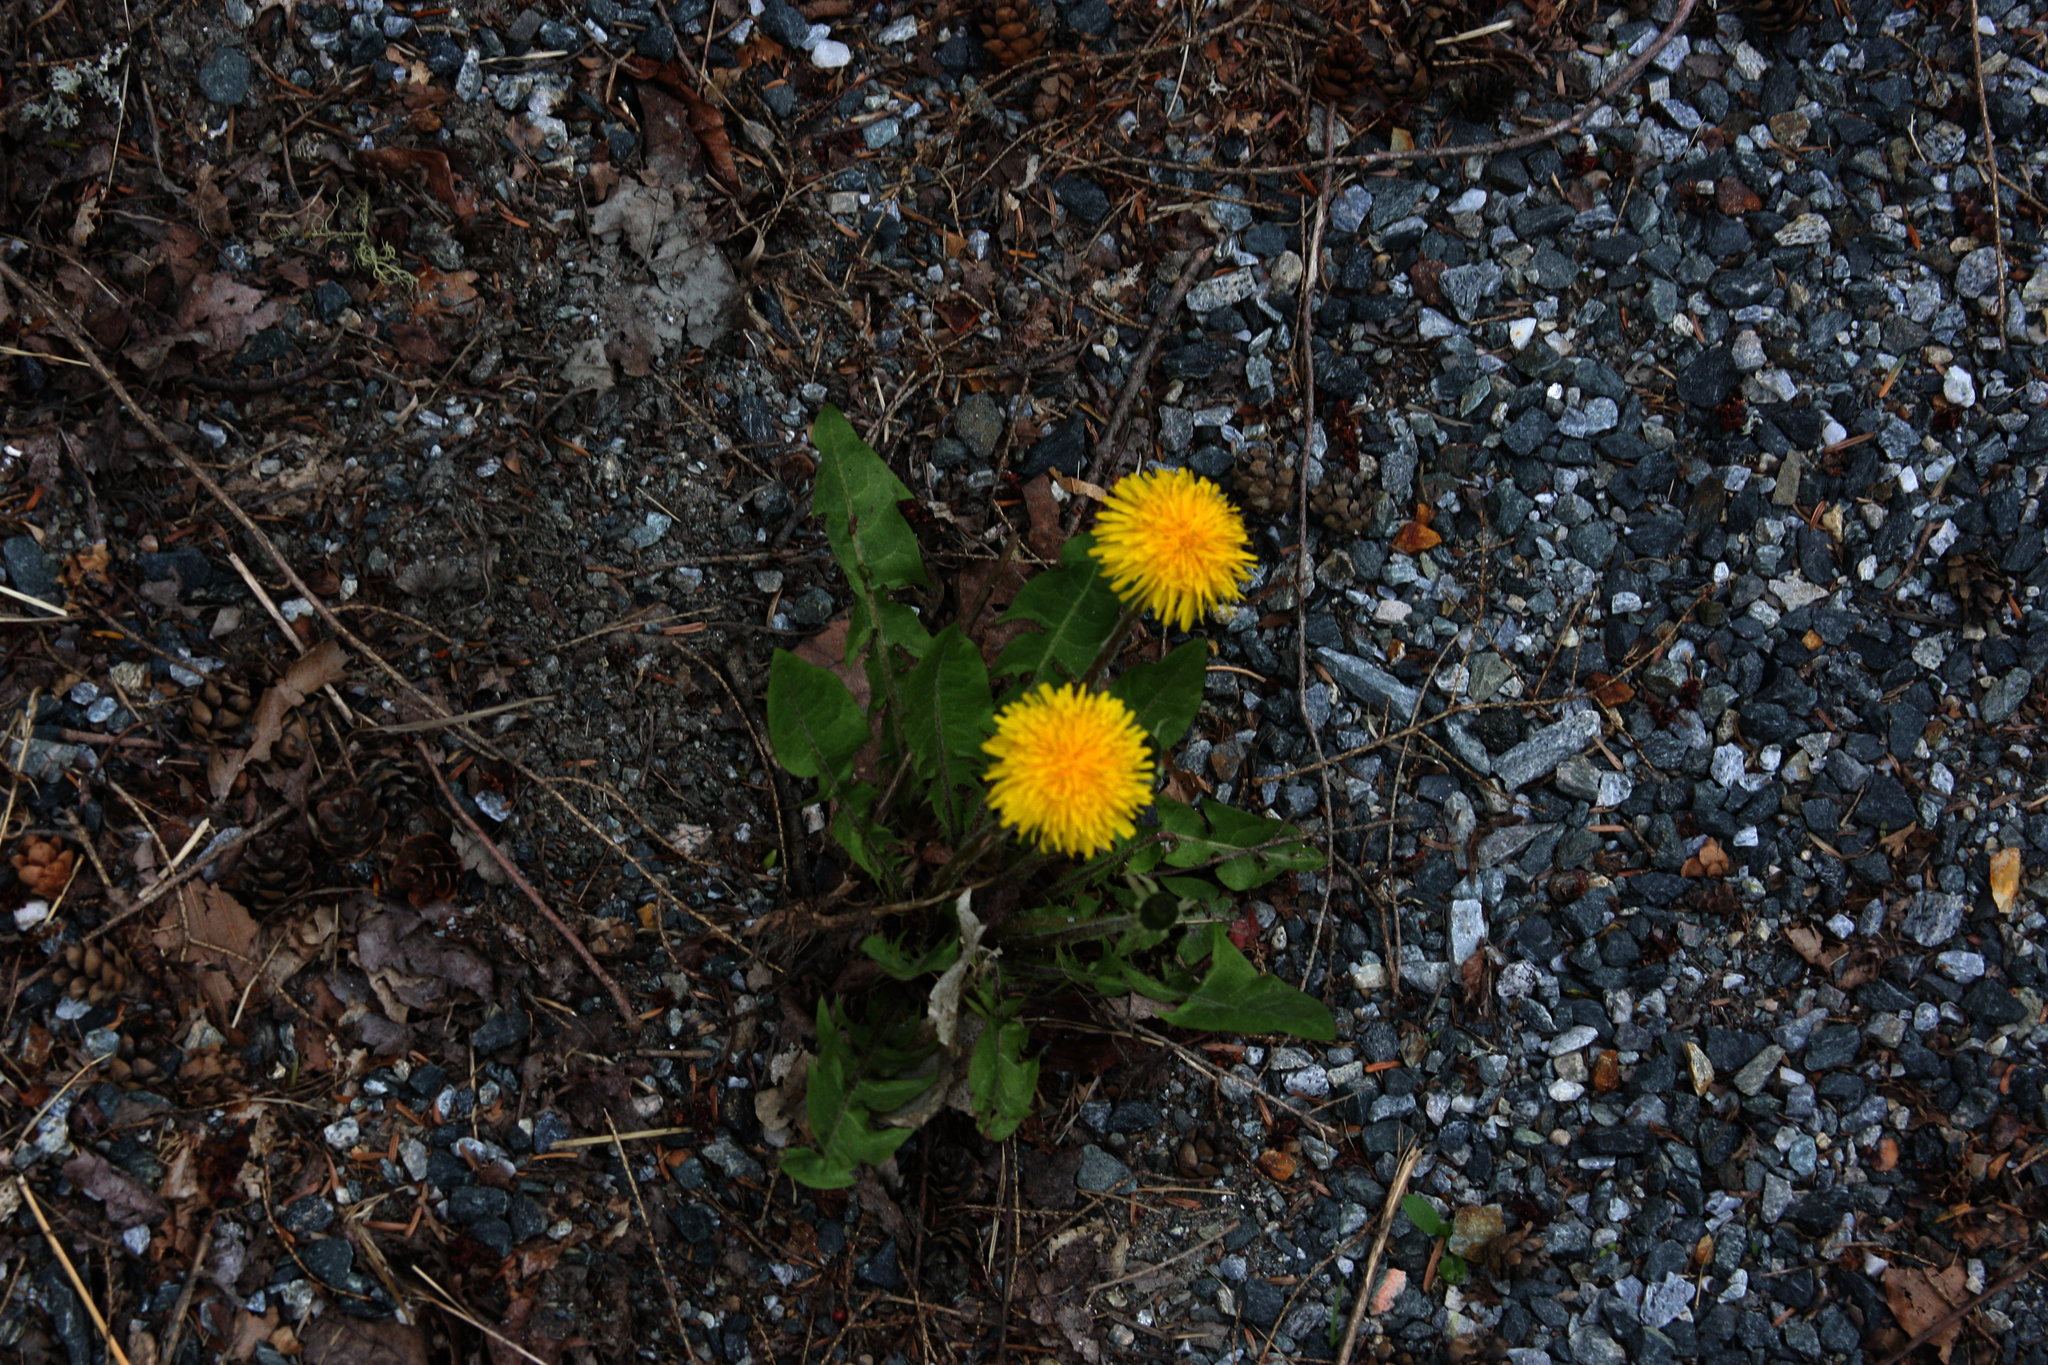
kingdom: Plantae
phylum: Tracheophyta
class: Magnoliopsida
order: Asterales
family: Asteraceae
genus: Taraxacum
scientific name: Taraxacum officinale
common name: Common dandelion
